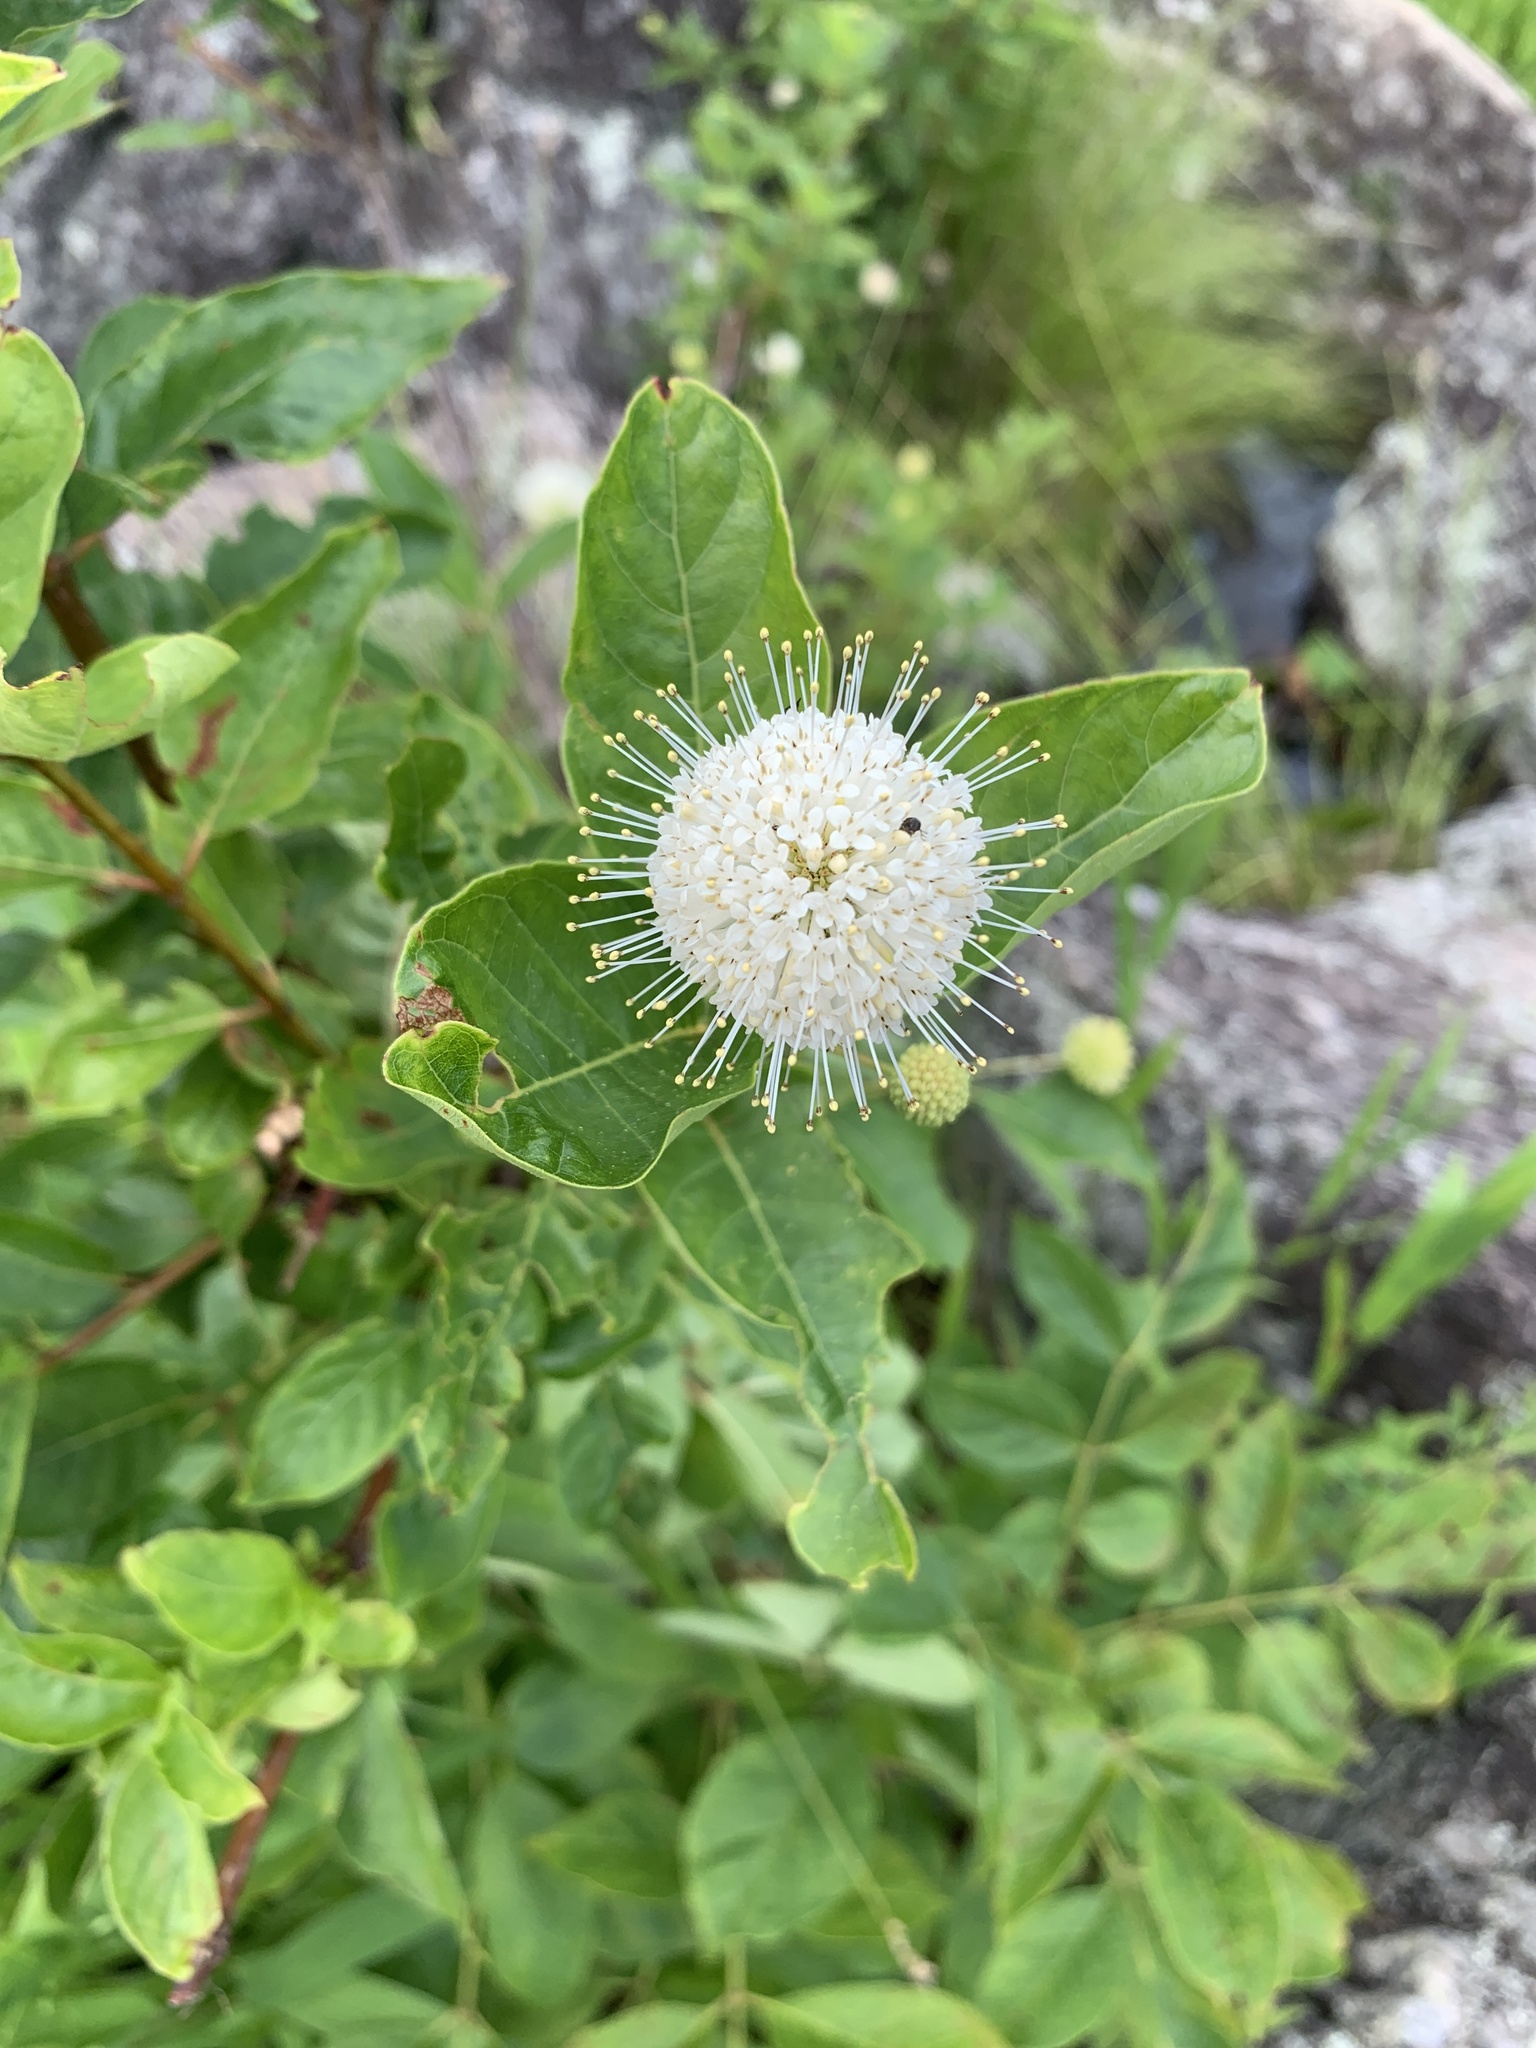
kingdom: Plantae
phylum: Tracheophyta
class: Magnoliopsida
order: Gentianales
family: Rubiaceae
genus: Cephalanthus
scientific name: Cephalanthus occidentalis
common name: Button-willow
